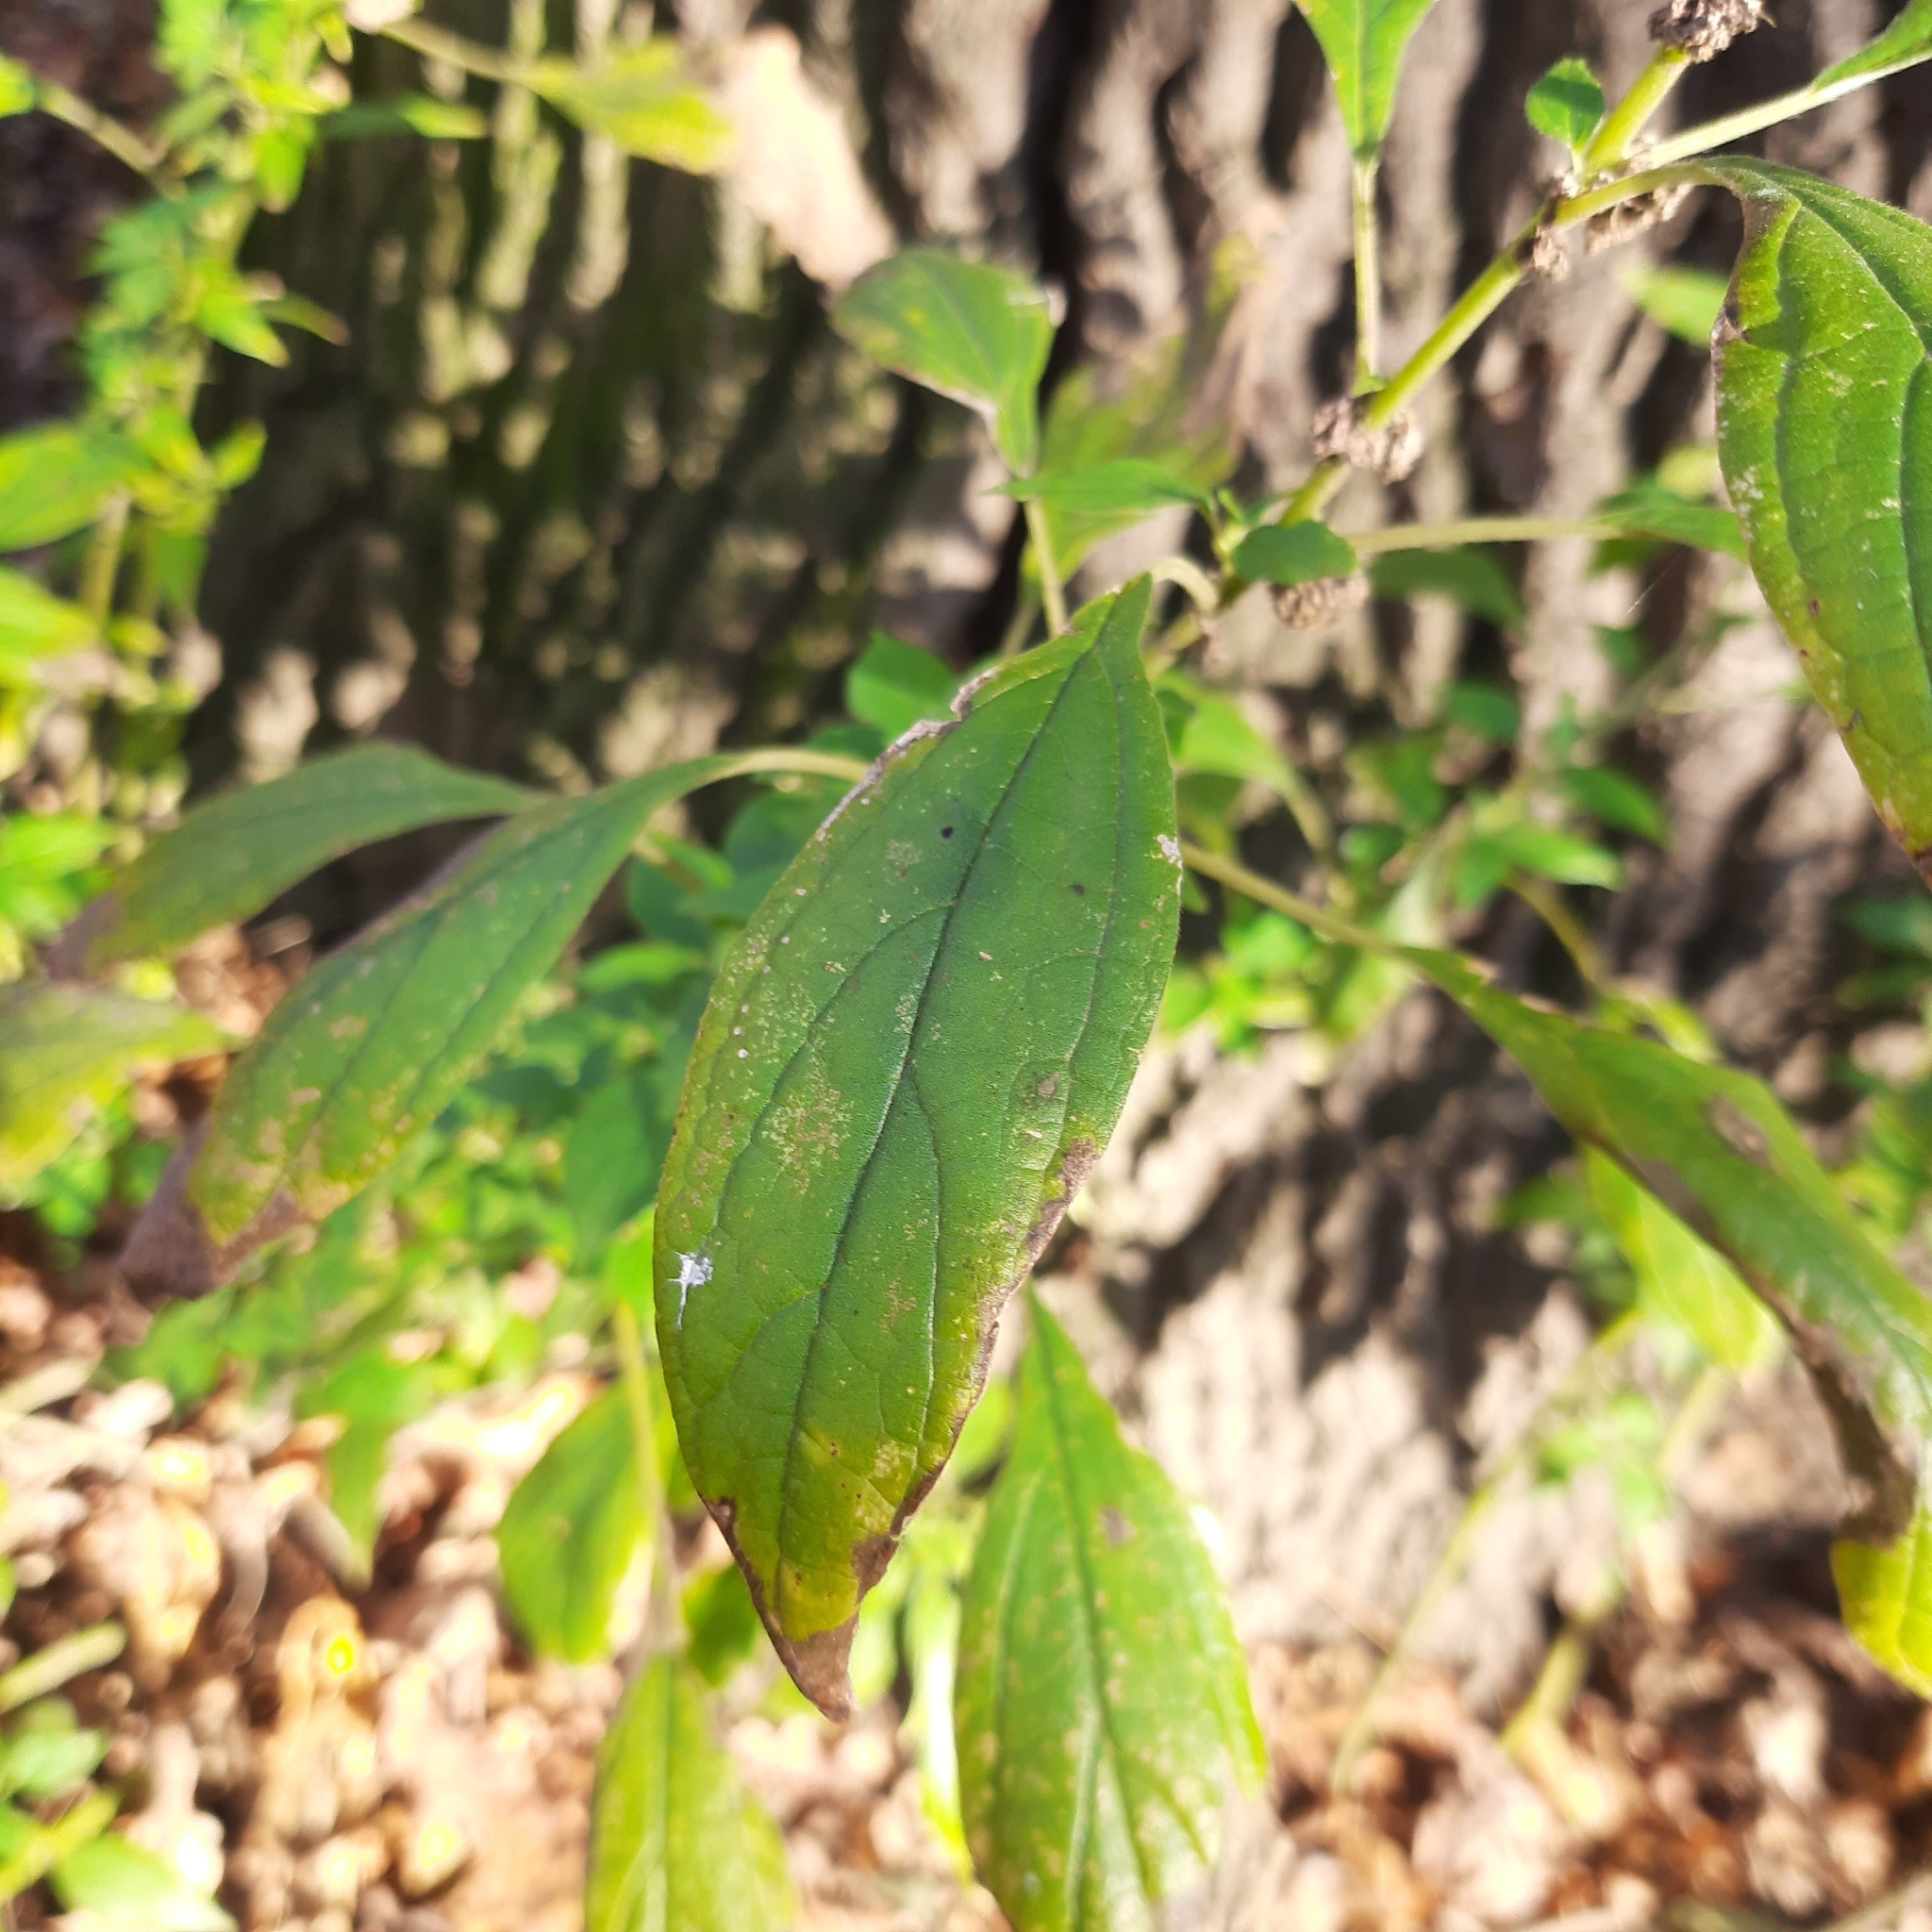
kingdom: Plantae
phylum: Tracheophyta
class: Magnoliopsida
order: Rosales
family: Urticaceae
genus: Parietaria
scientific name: Parietaria officinalis
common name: Eastern pellitory-of-the-wall
